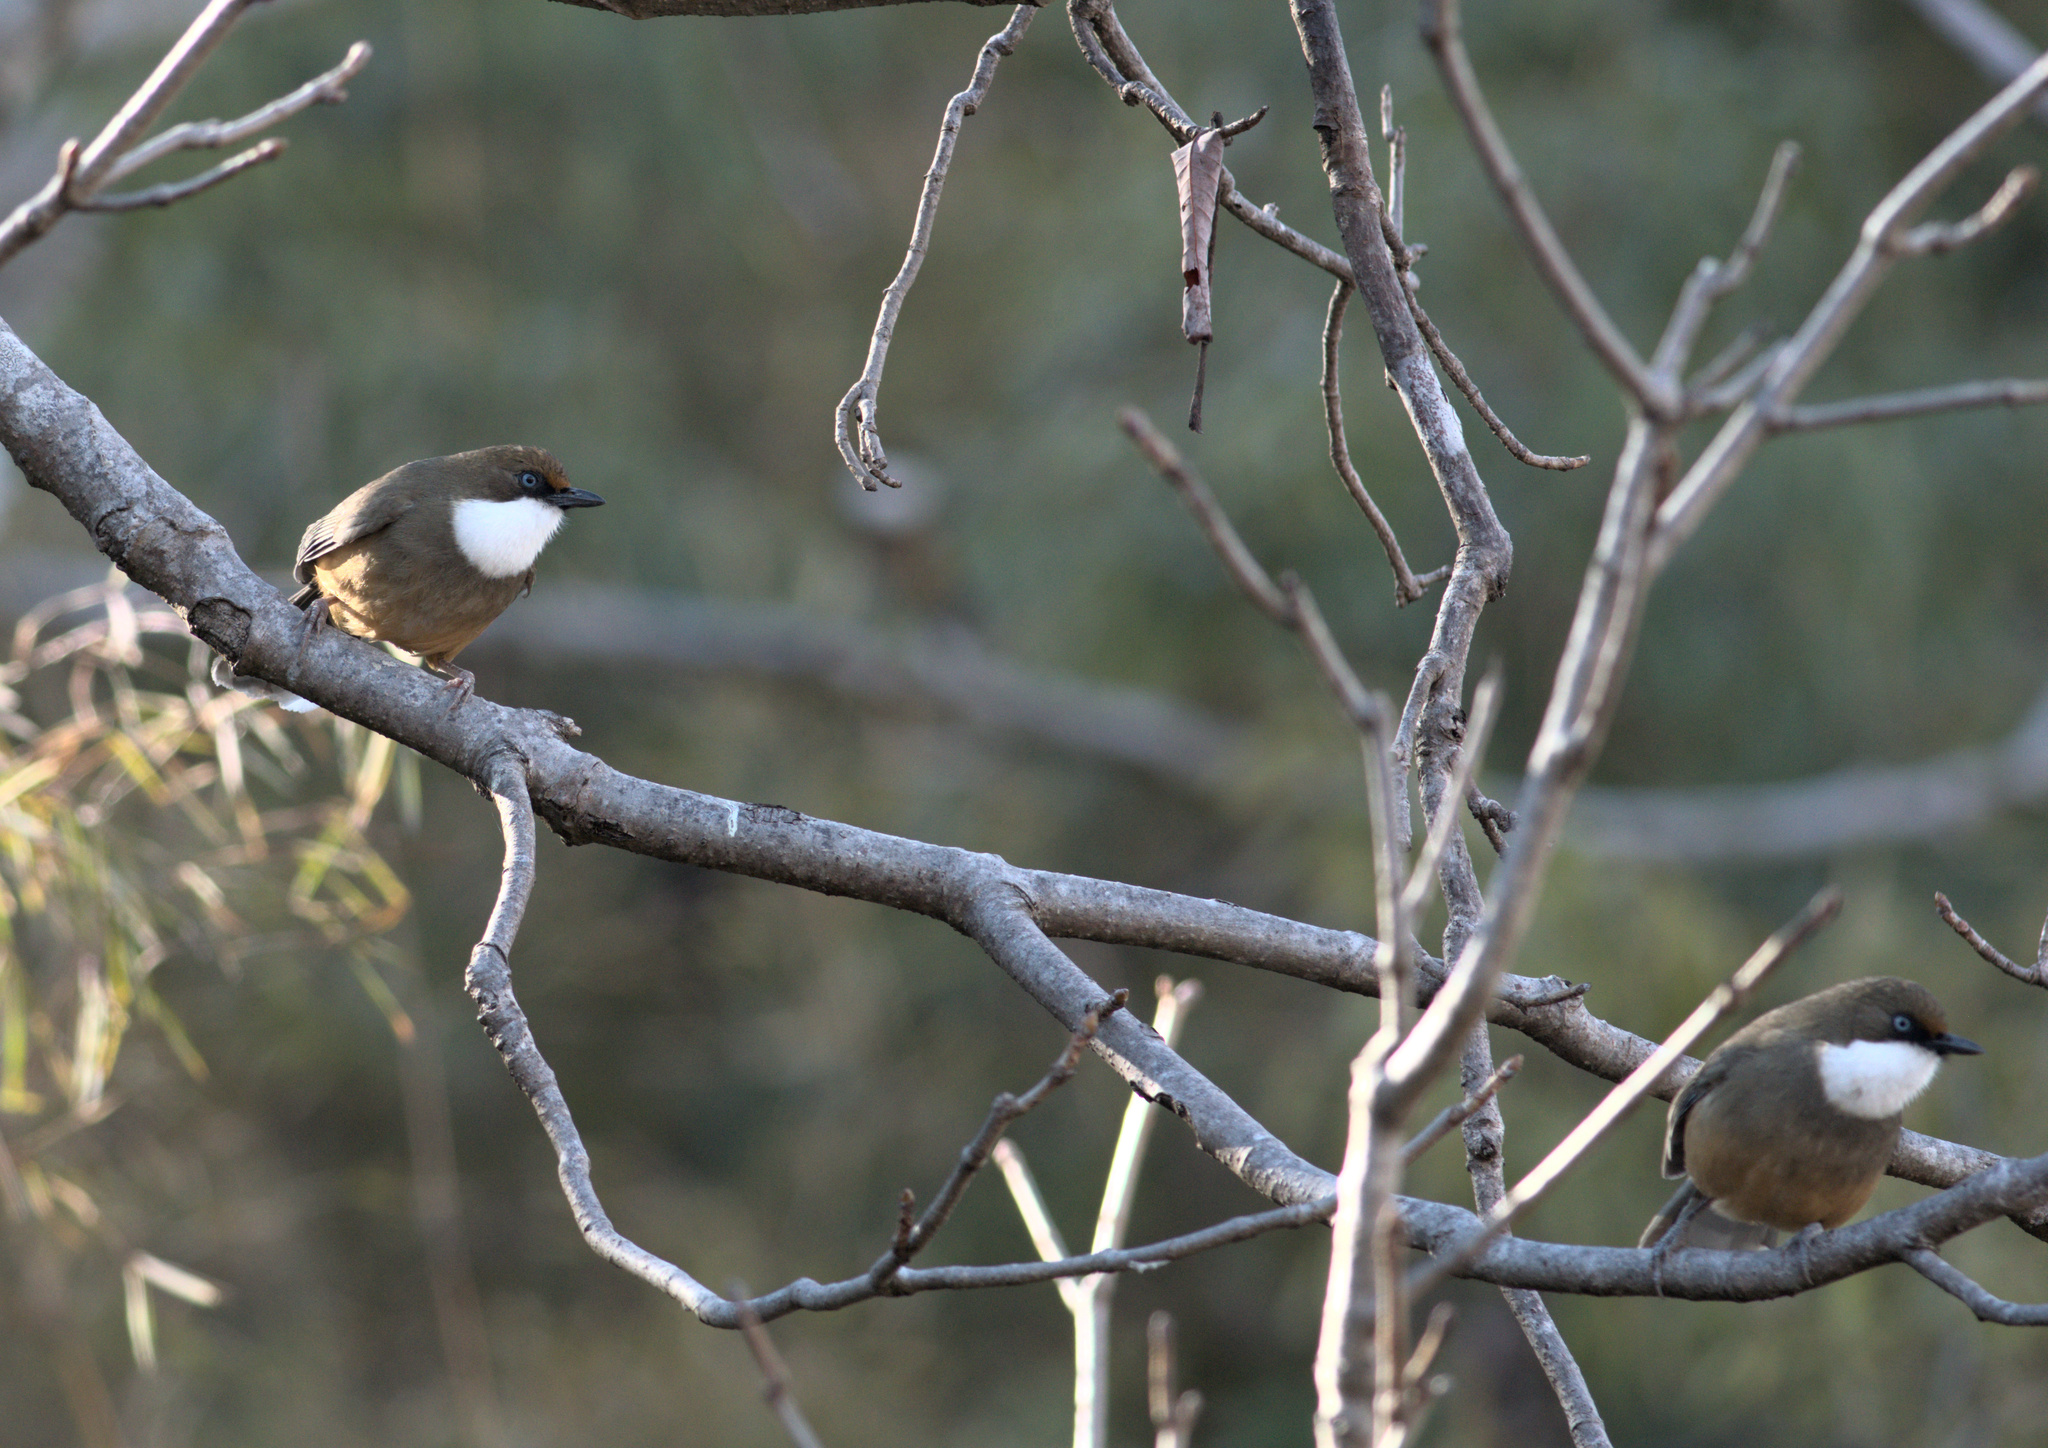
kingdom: Animalia
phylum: Chordata
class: Aves
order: Passeriformes
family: Leiothrichidae
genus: Garrulax
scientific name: Garrulax albogularis
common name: White-throated laughingthrush
